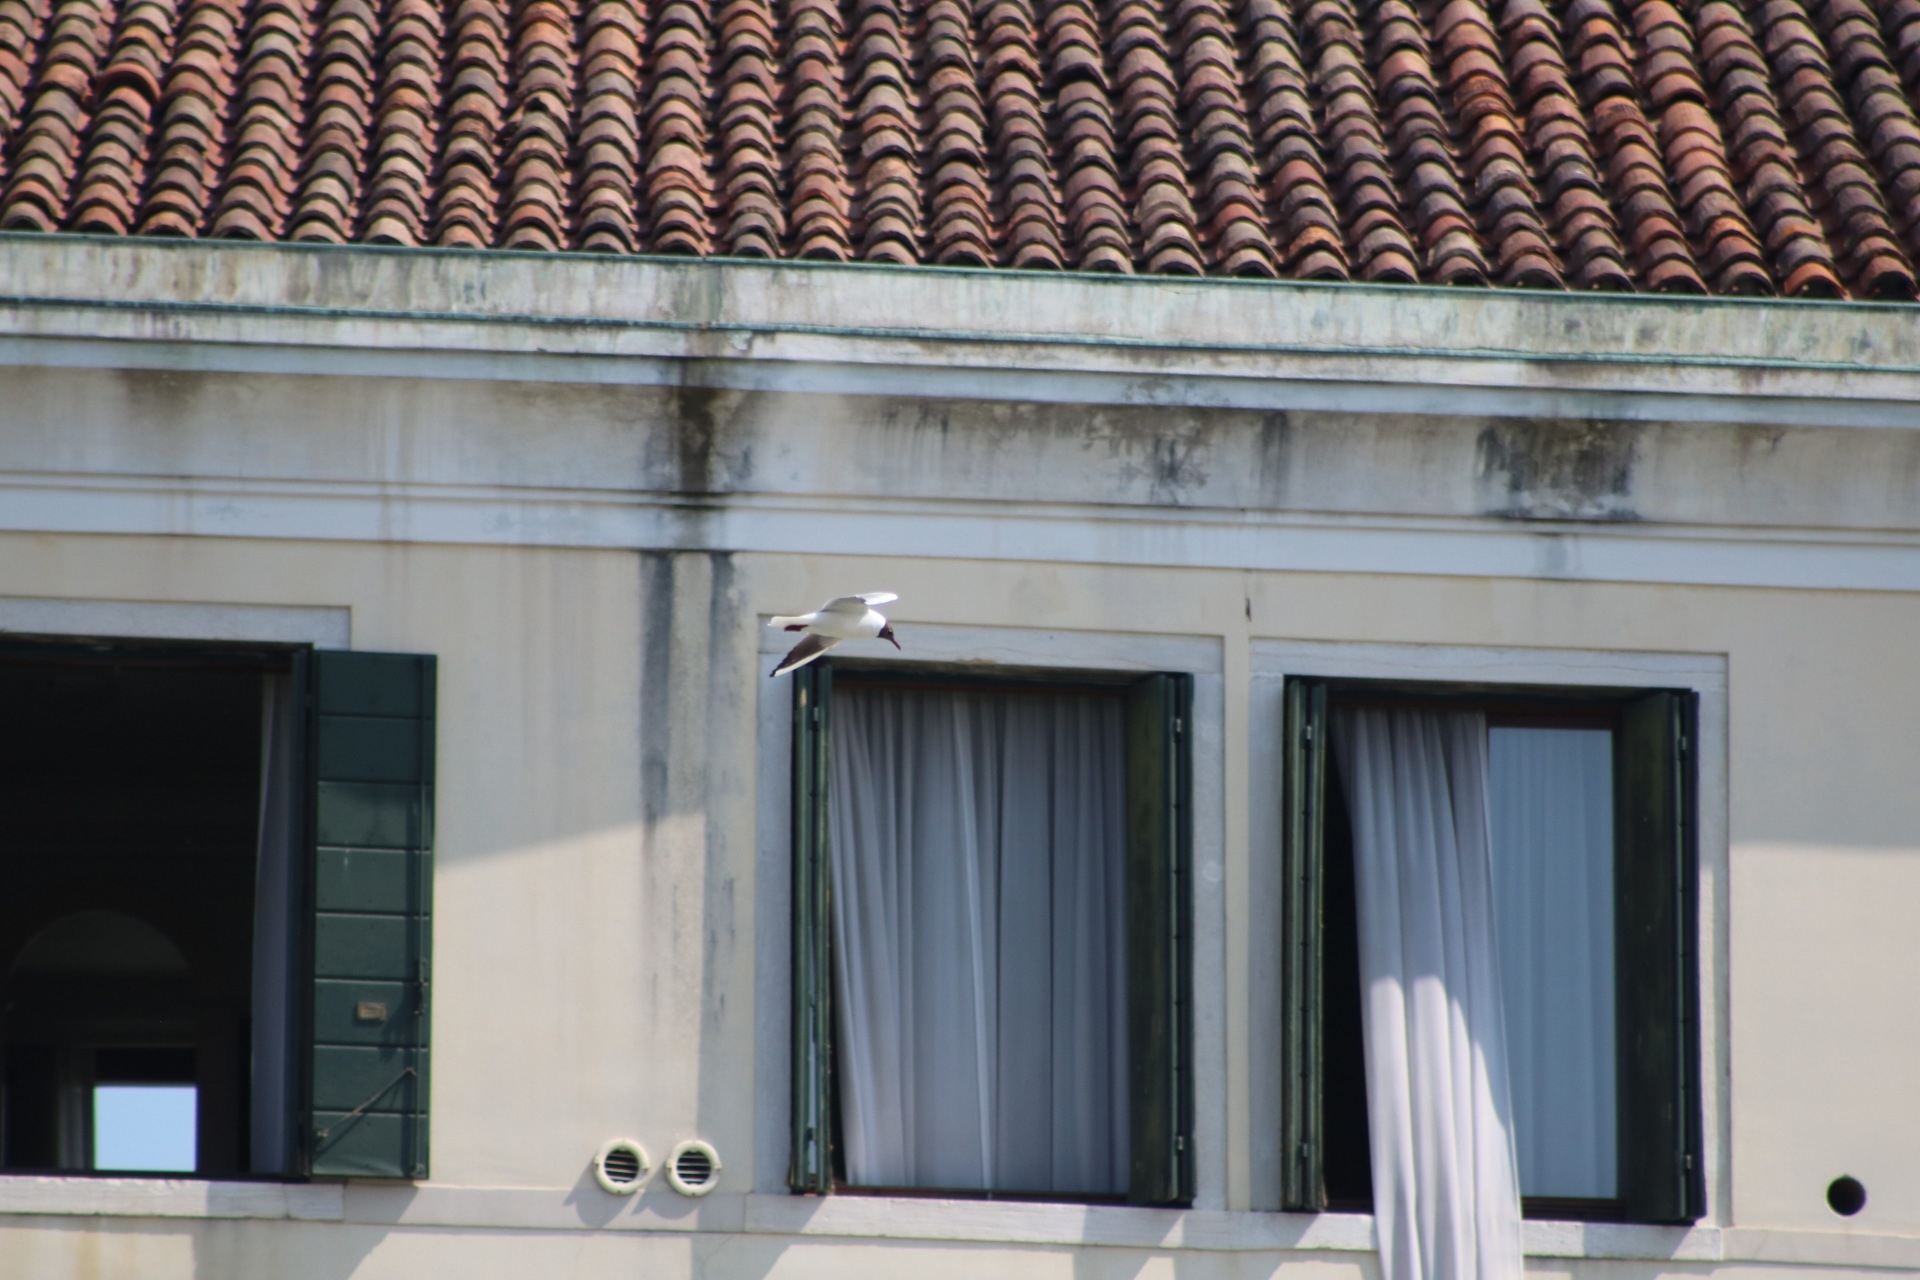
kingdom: Animalia
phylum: Chordata
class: Aves
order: Charadriiformes
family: Laridae
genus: Chroicocephalus
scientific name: Chroicocephalus ridibundus
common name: Black-headed gull
